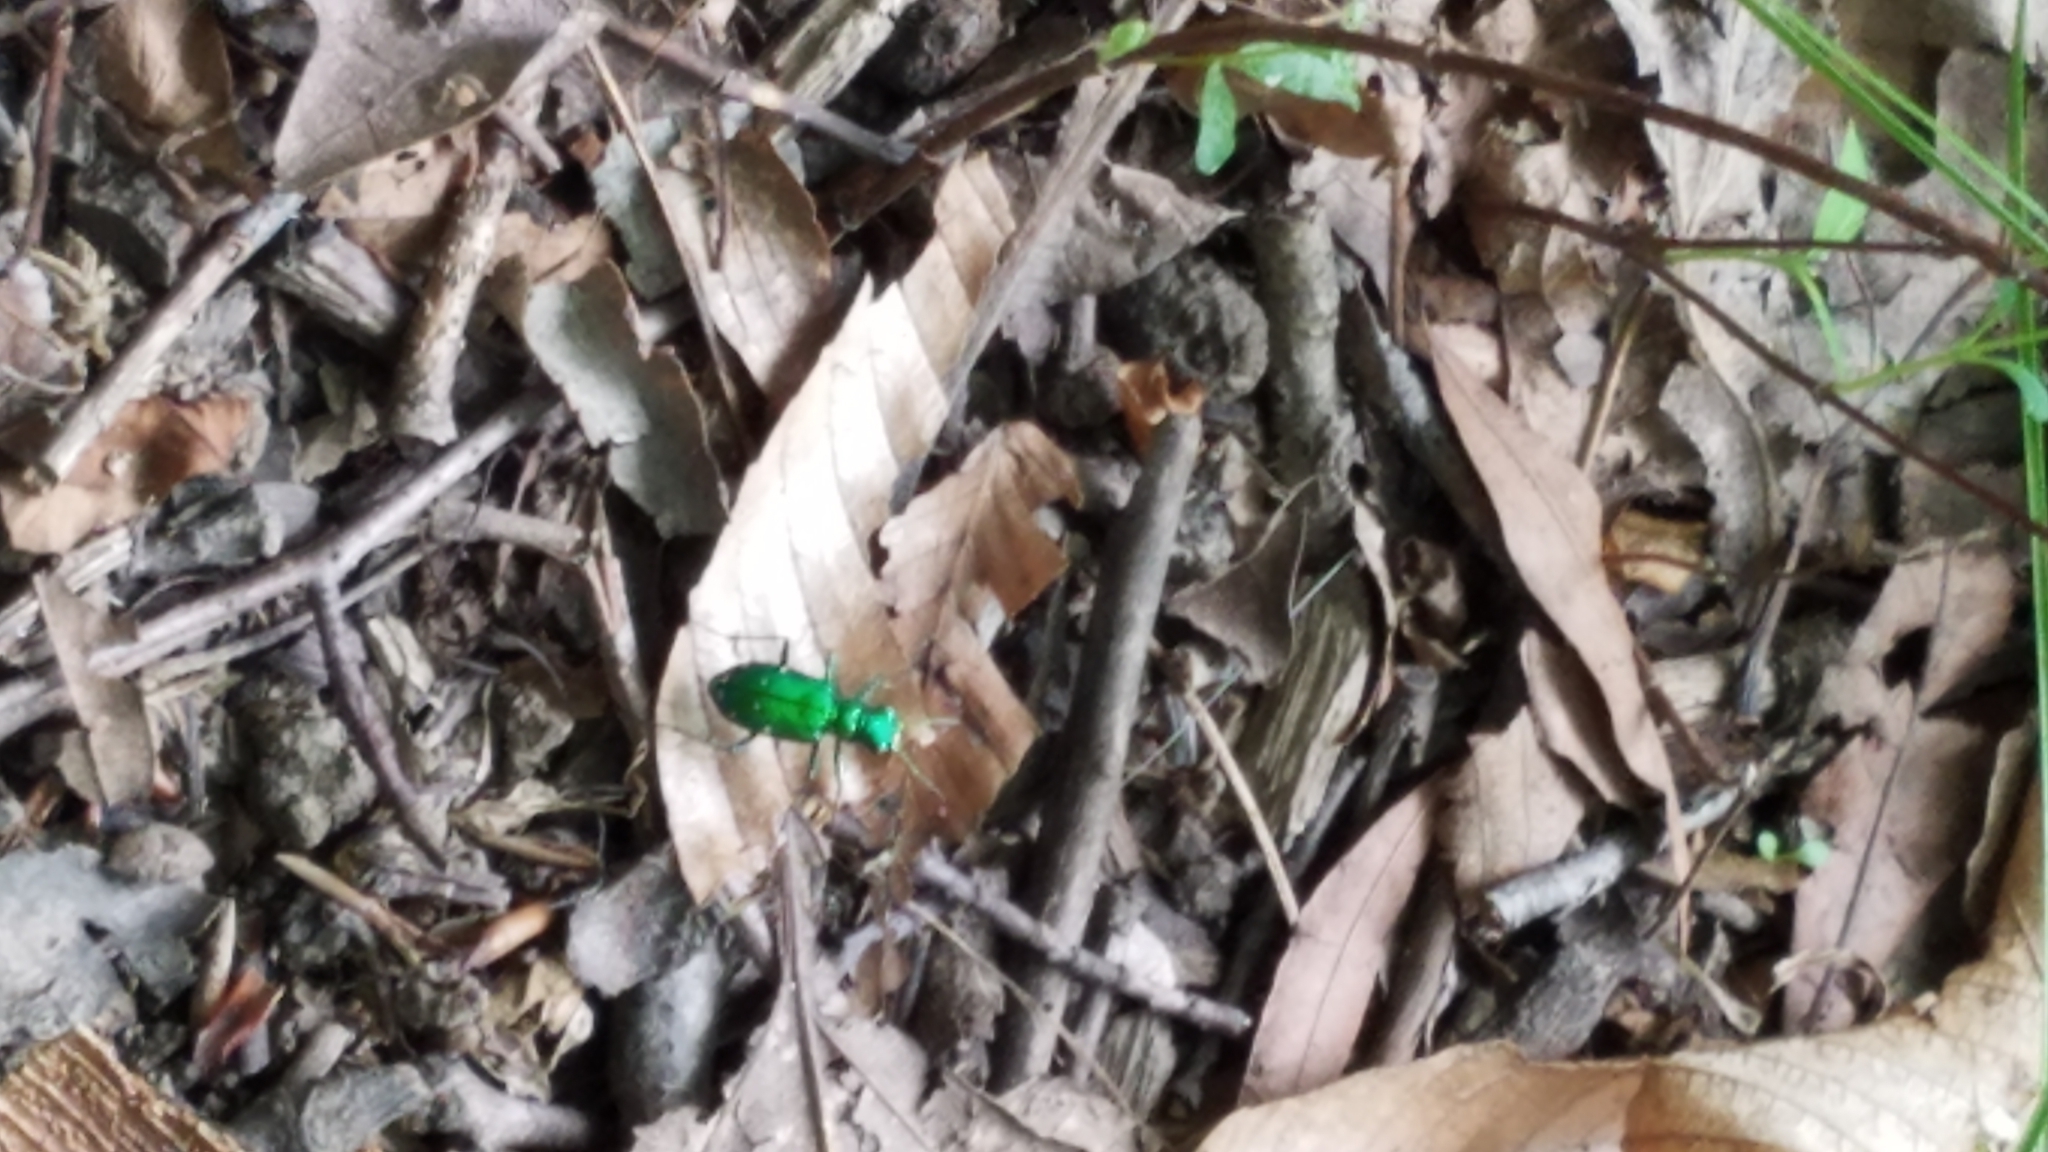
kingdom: Animalia
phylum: Arthropoda
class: Insecta
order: Coleoptera
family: Carabidae
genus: Cicindela
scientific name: Cicindela sexguttata
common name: Six-spotted tiger beetle
